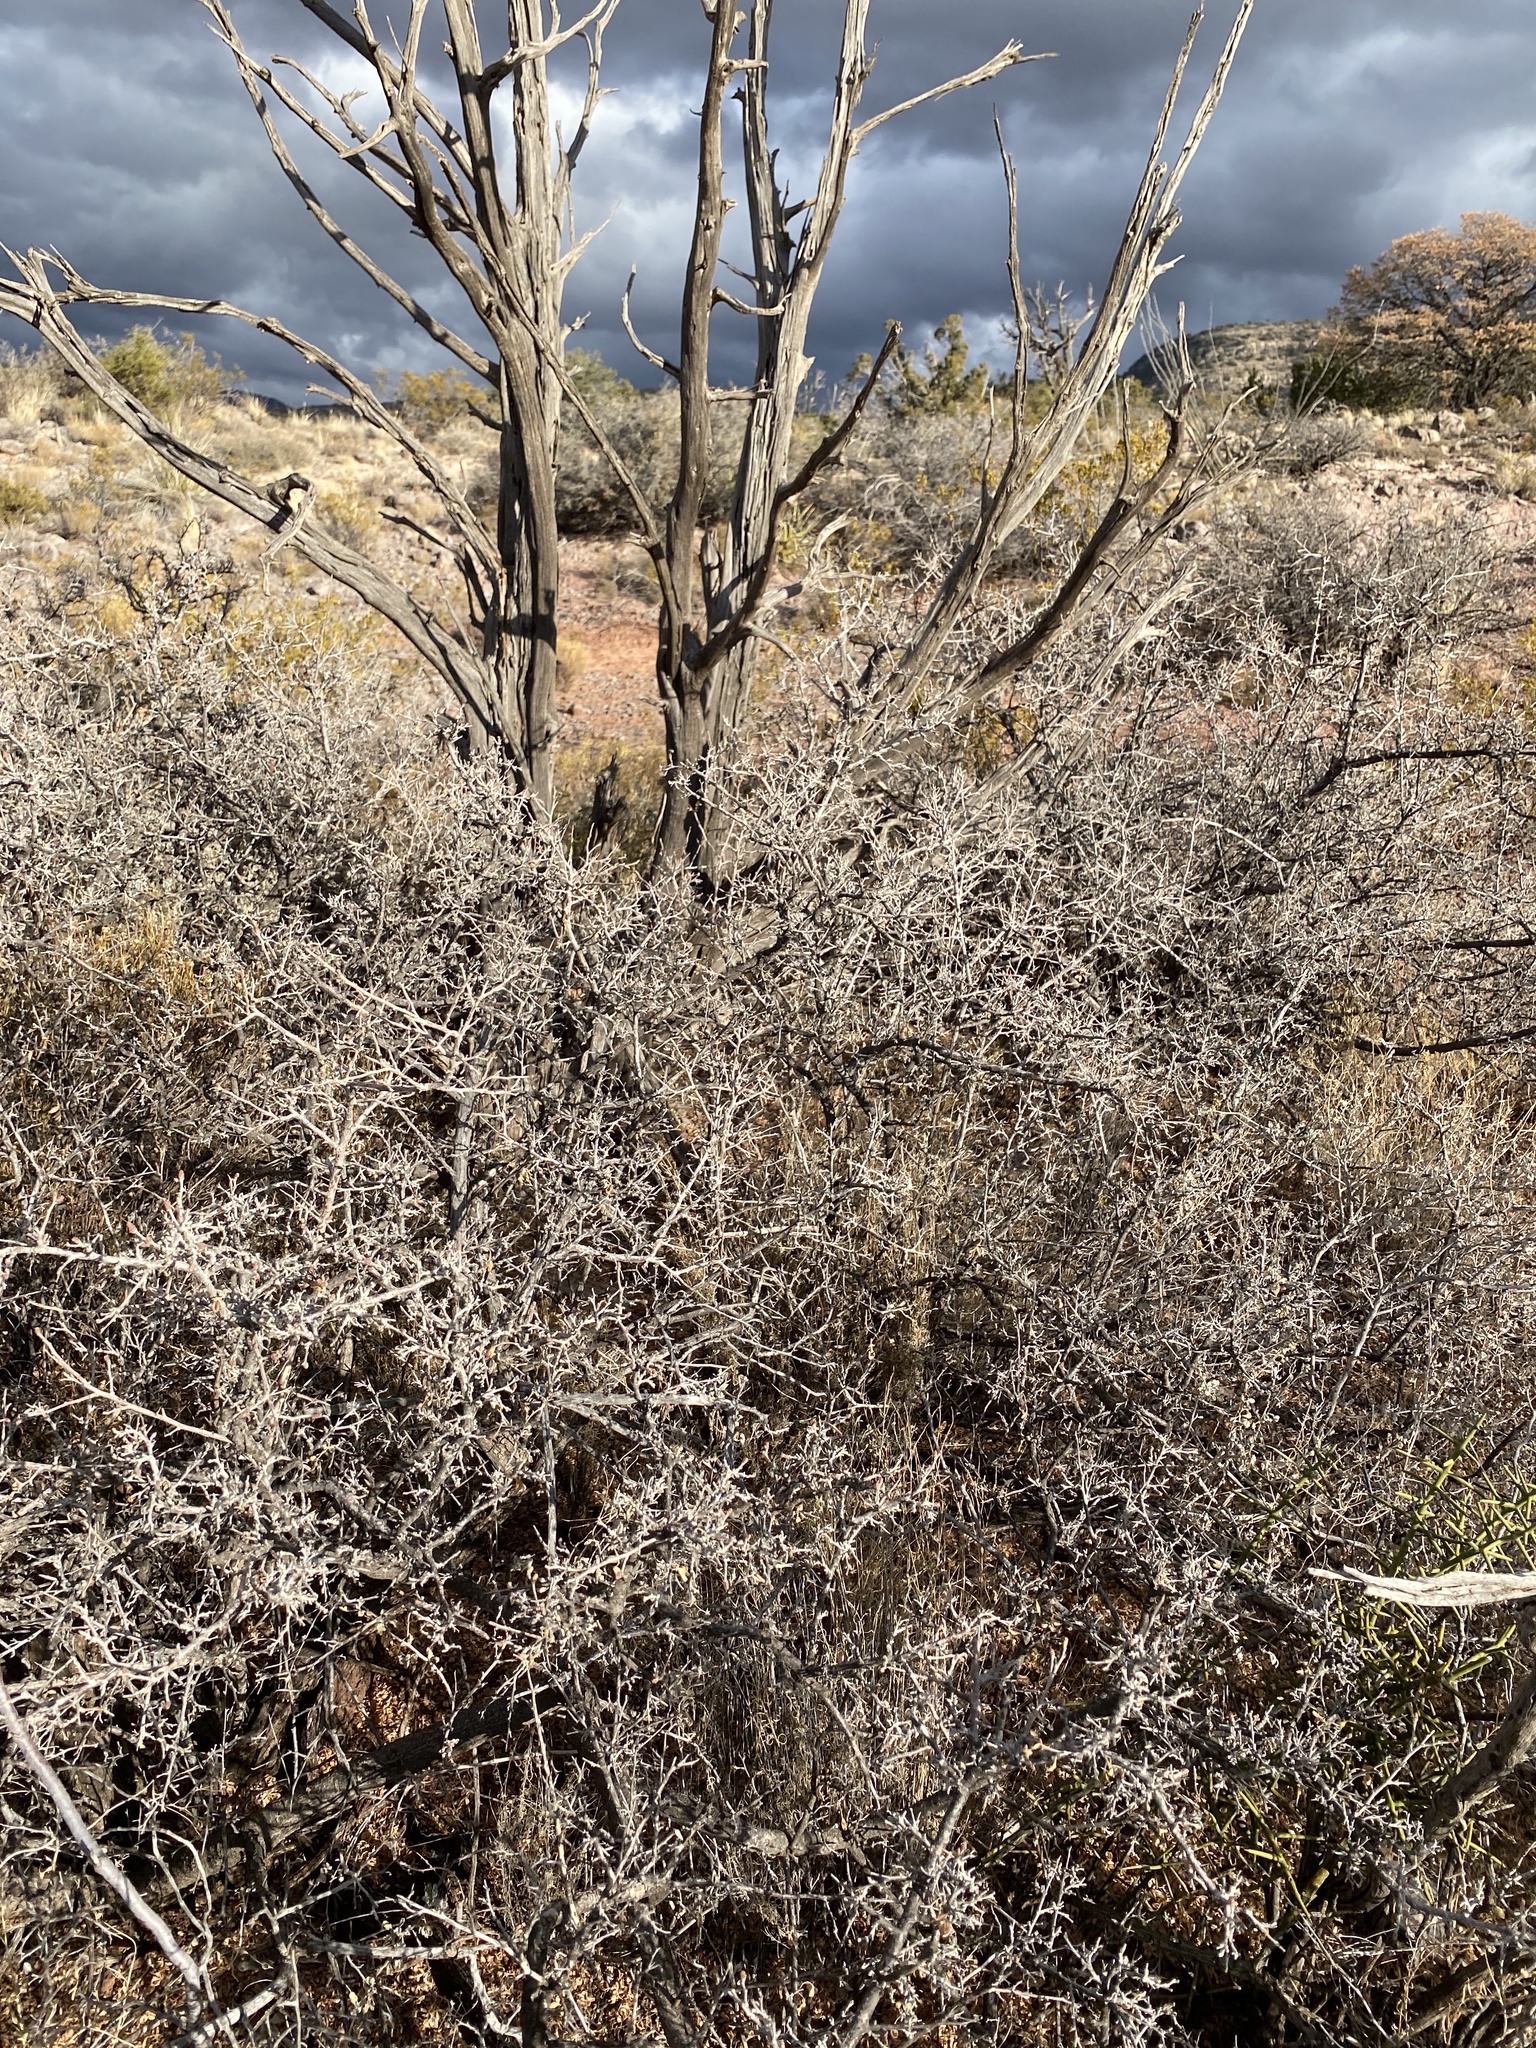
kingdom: Plantae
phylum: Tracheophyta
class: Magnoliopsida
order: Sapindales
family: Anacardiaceae
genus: Rhus
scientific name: Rhus microphylla
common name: Desert sumac
